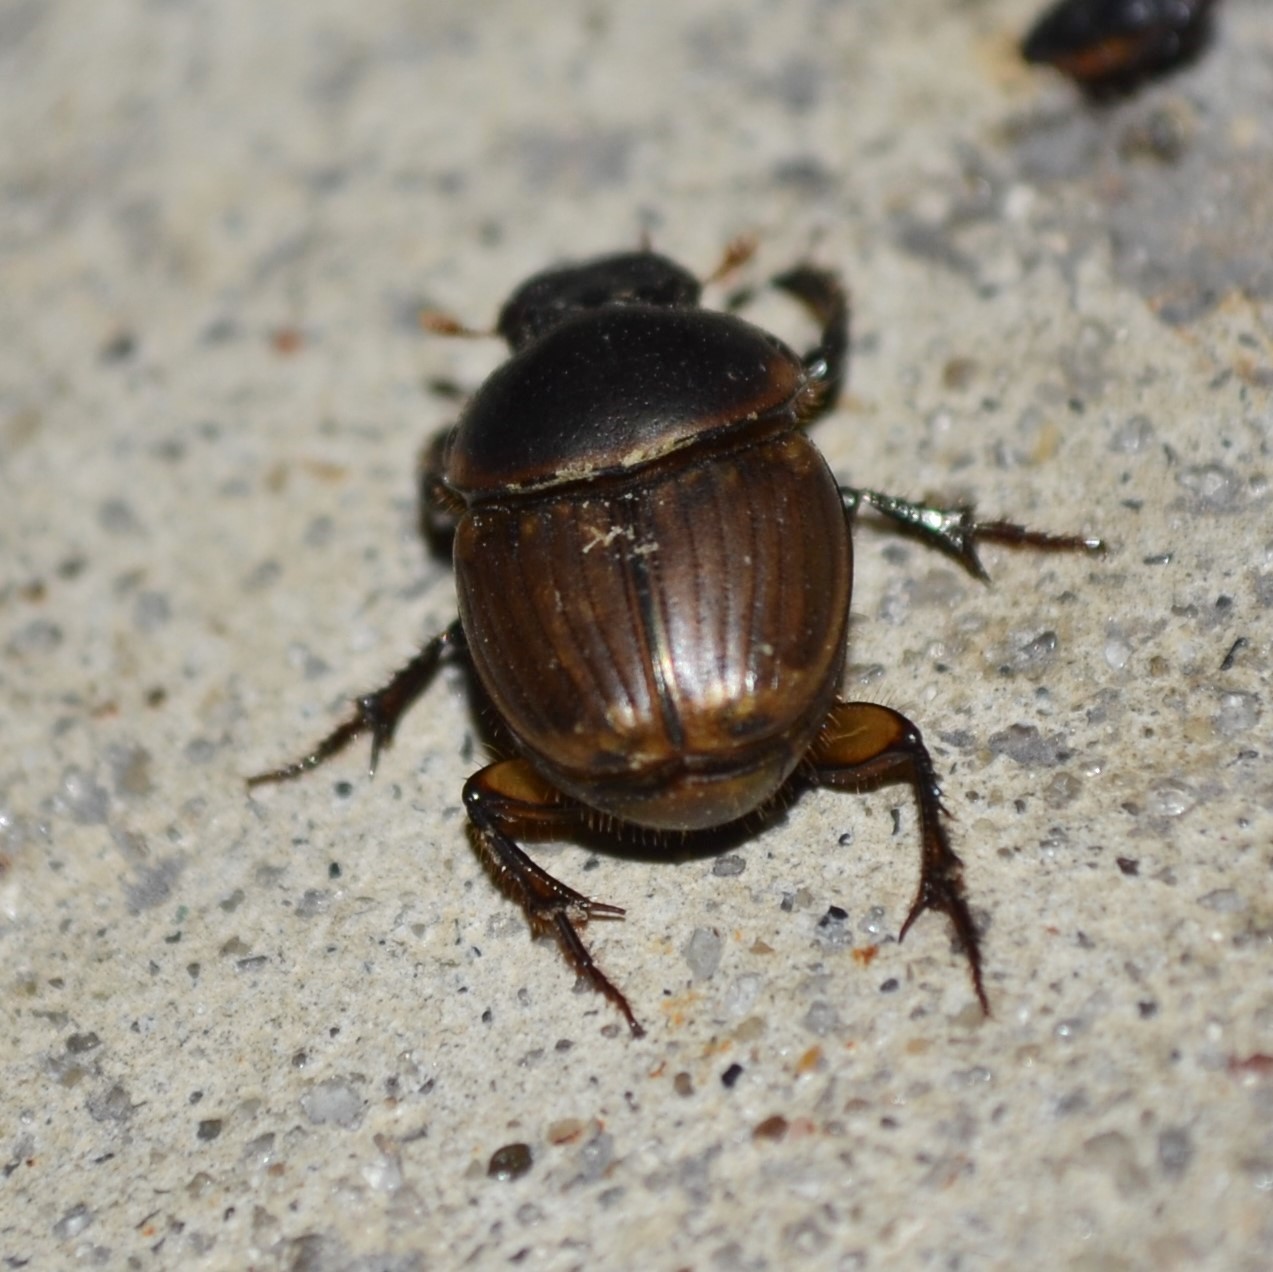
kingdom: Animalia
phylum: Arthropoda
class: Insecta
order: Coleoptera
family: Scarabaeidae
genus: Digitonthophagus
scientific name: Digitonthophagus gazella
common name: Brown dung beetle
